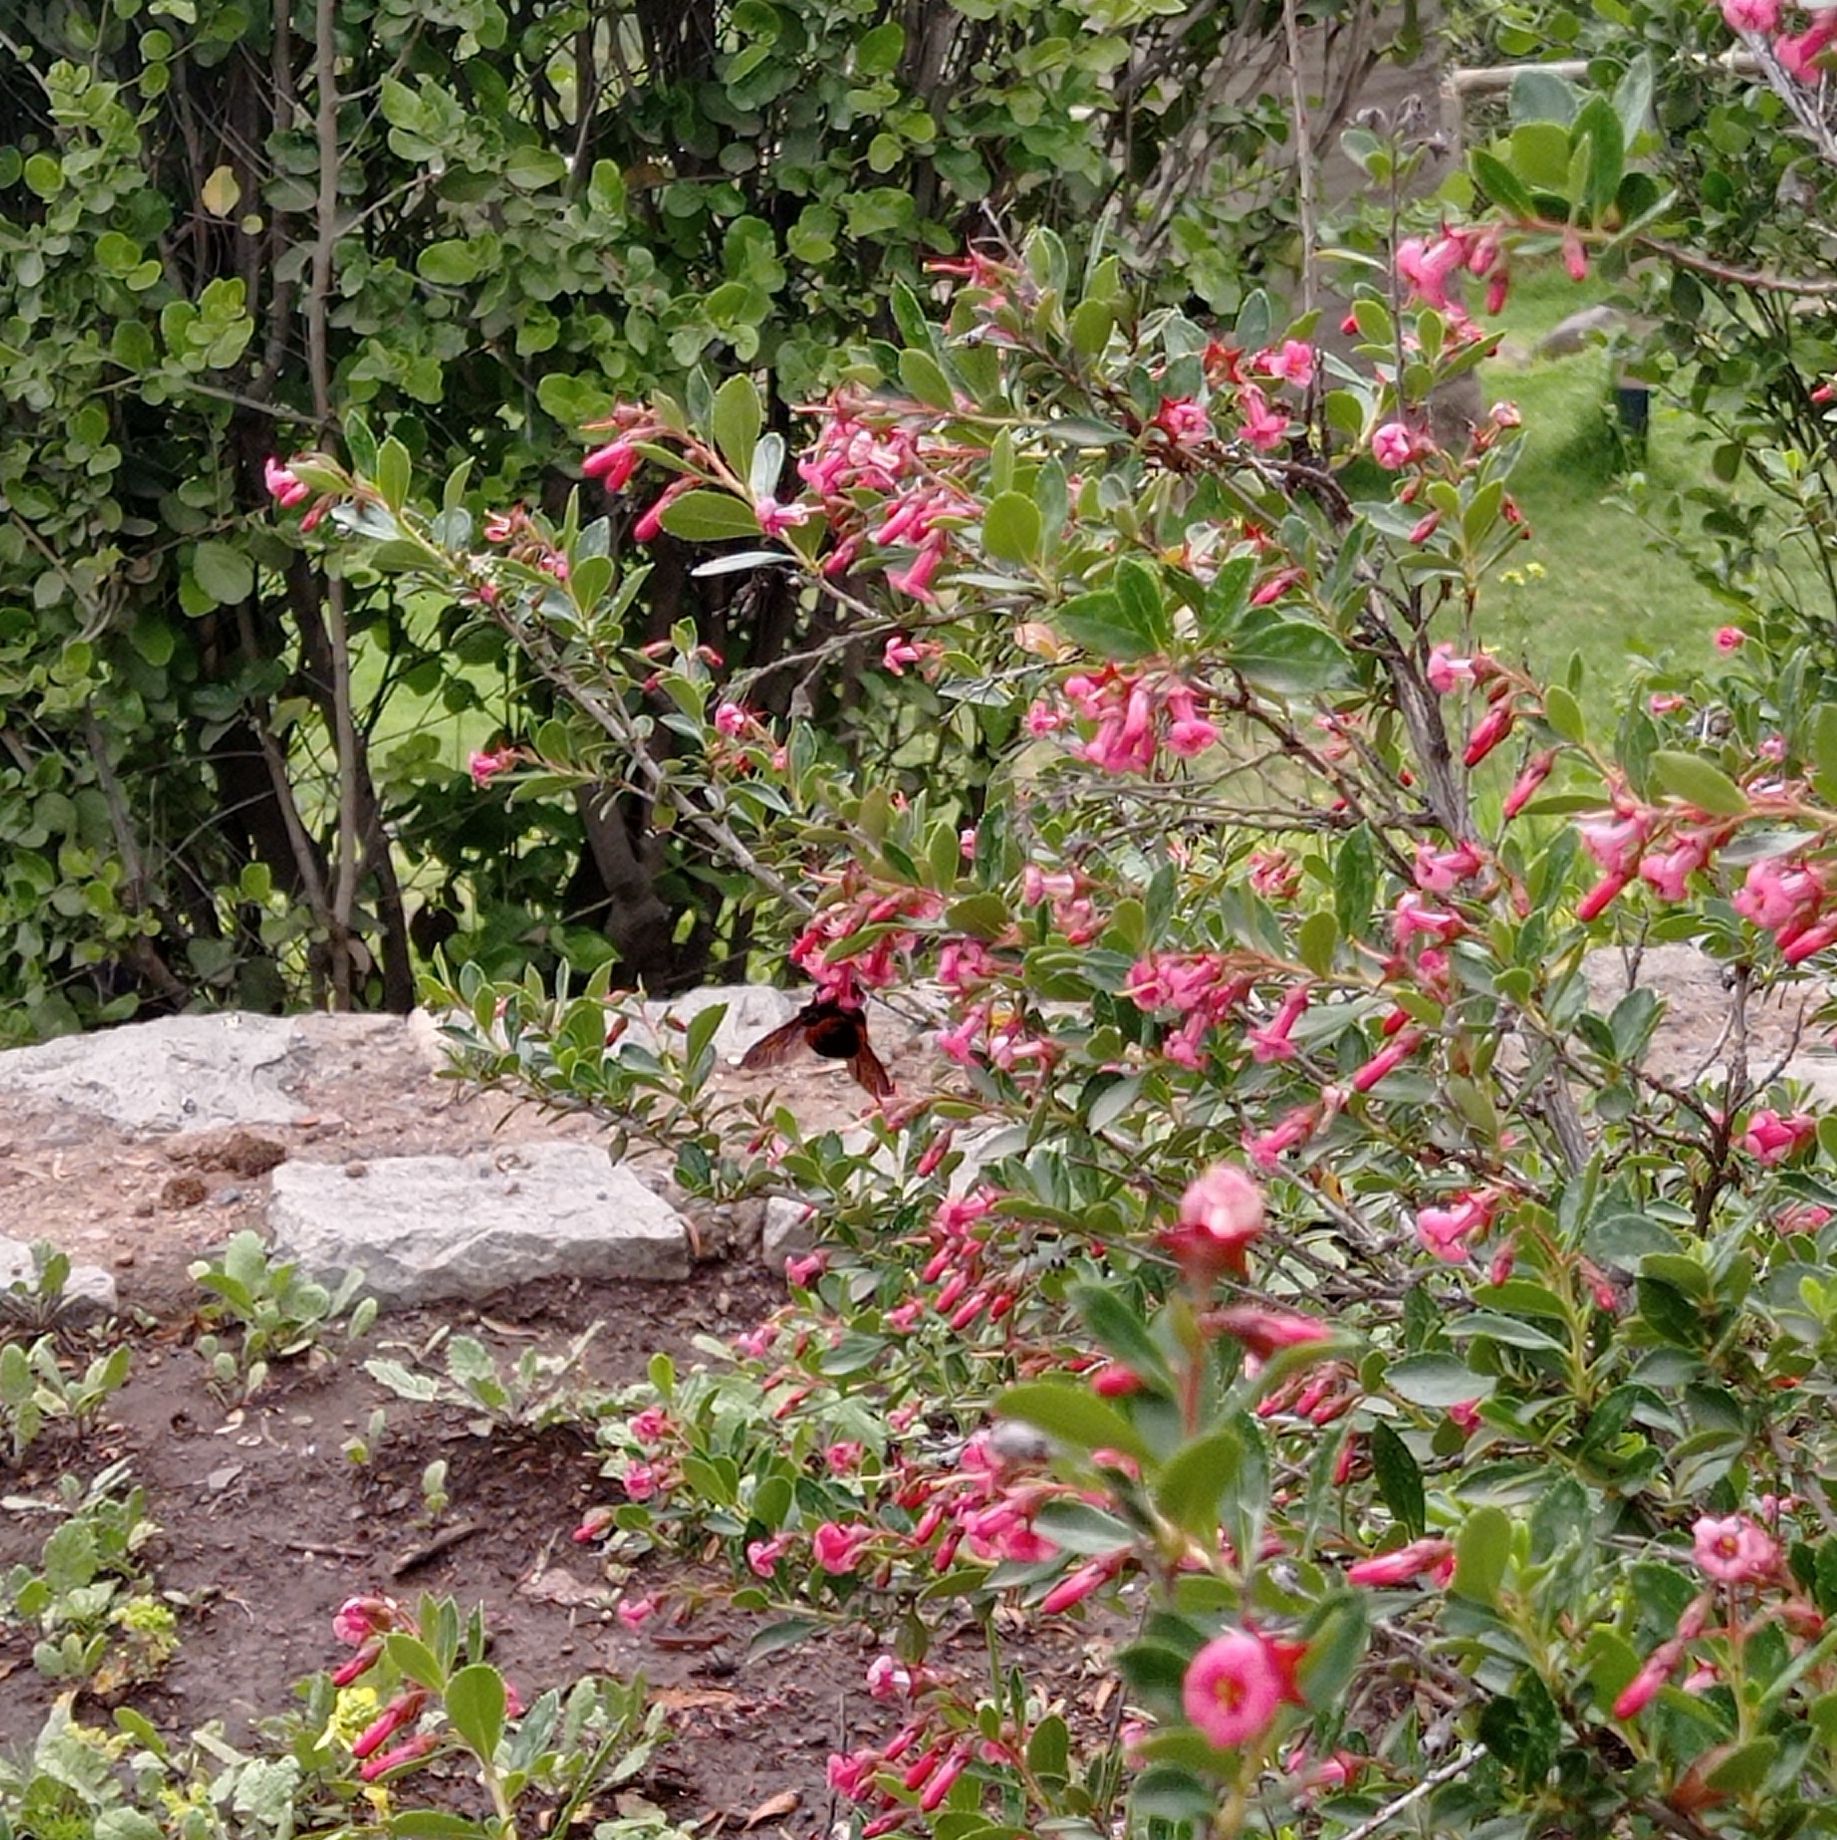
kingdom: Animalia
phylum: Arthropoda
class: Insecta
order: Hymenoptera
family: Apidae
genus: Xylocopa
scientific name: Xylocopa augusti
